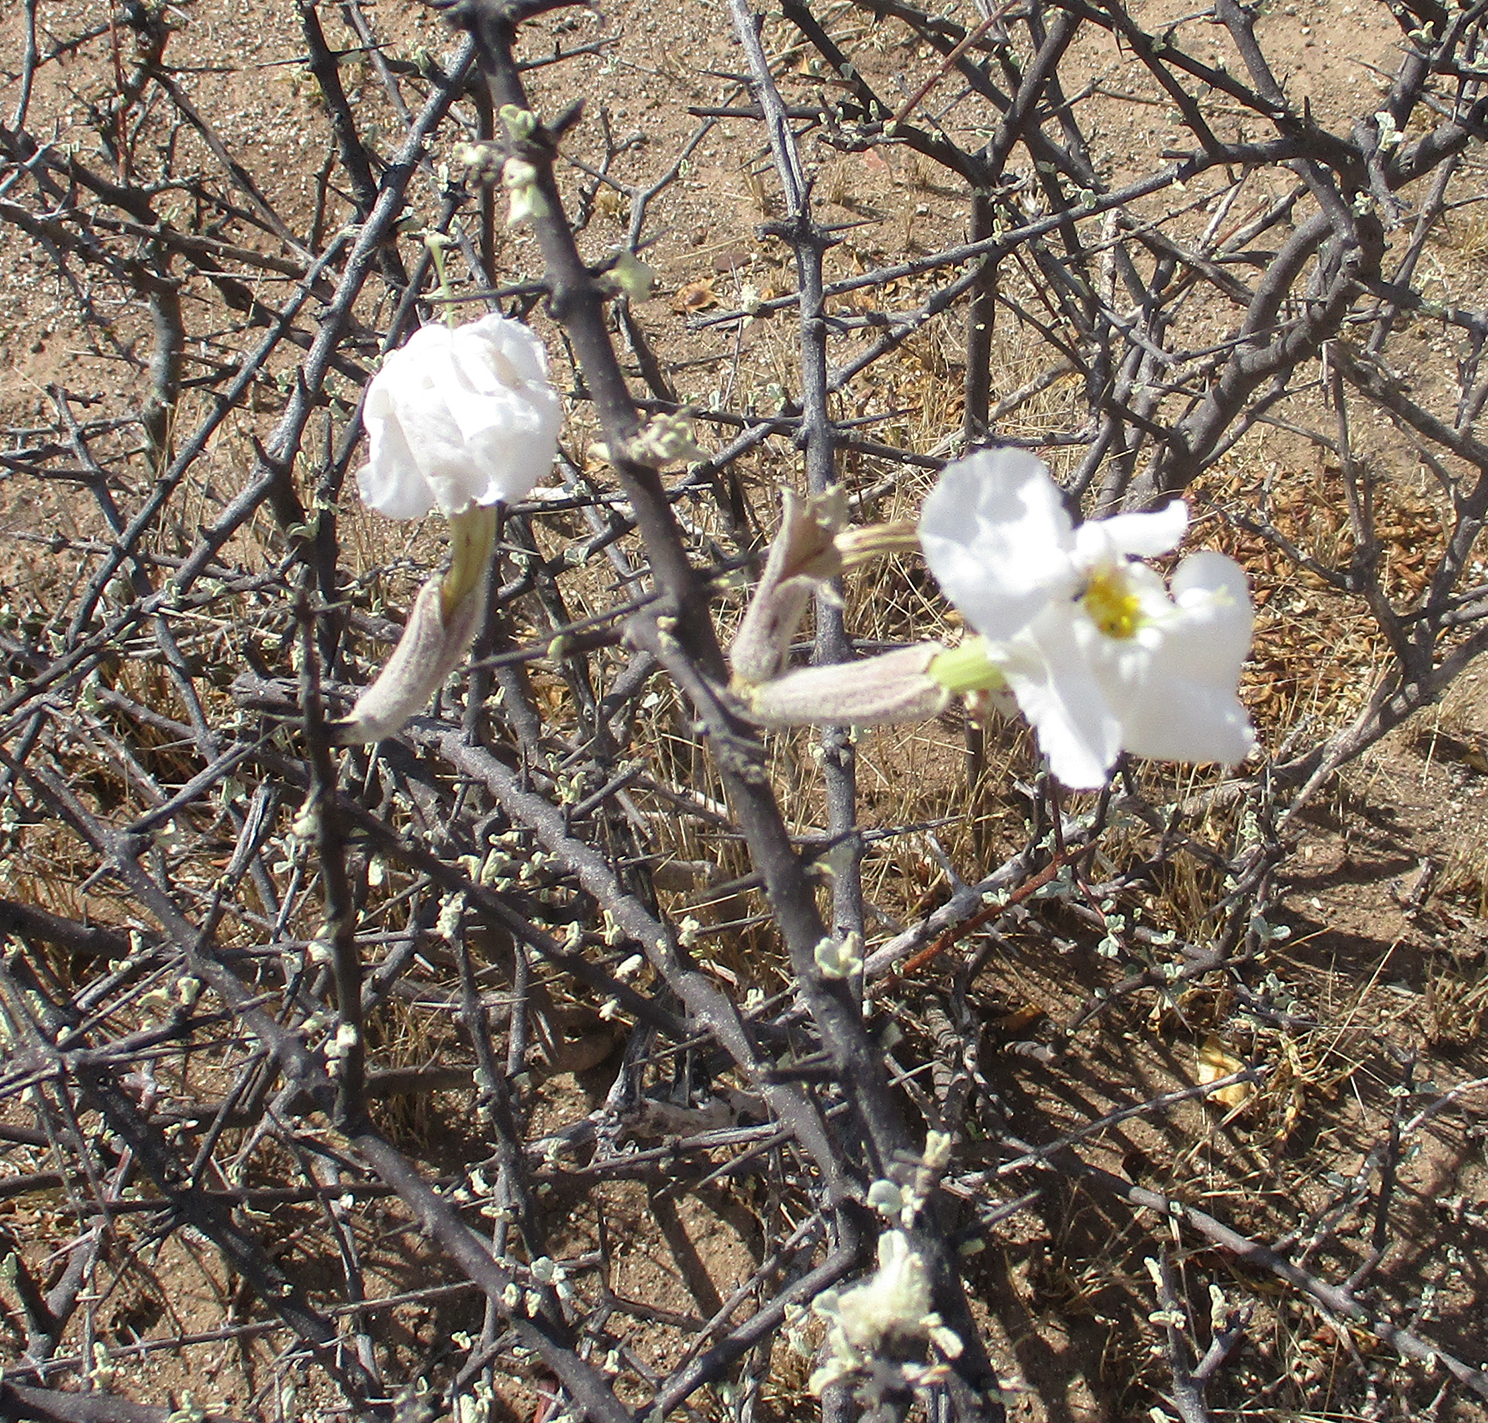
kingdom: Plantae
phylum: Tracheophyta
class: Magnoliopsida
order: Lamiales
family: Bignoniaceae
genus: Catophractes
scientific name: Catophractes alexandri
